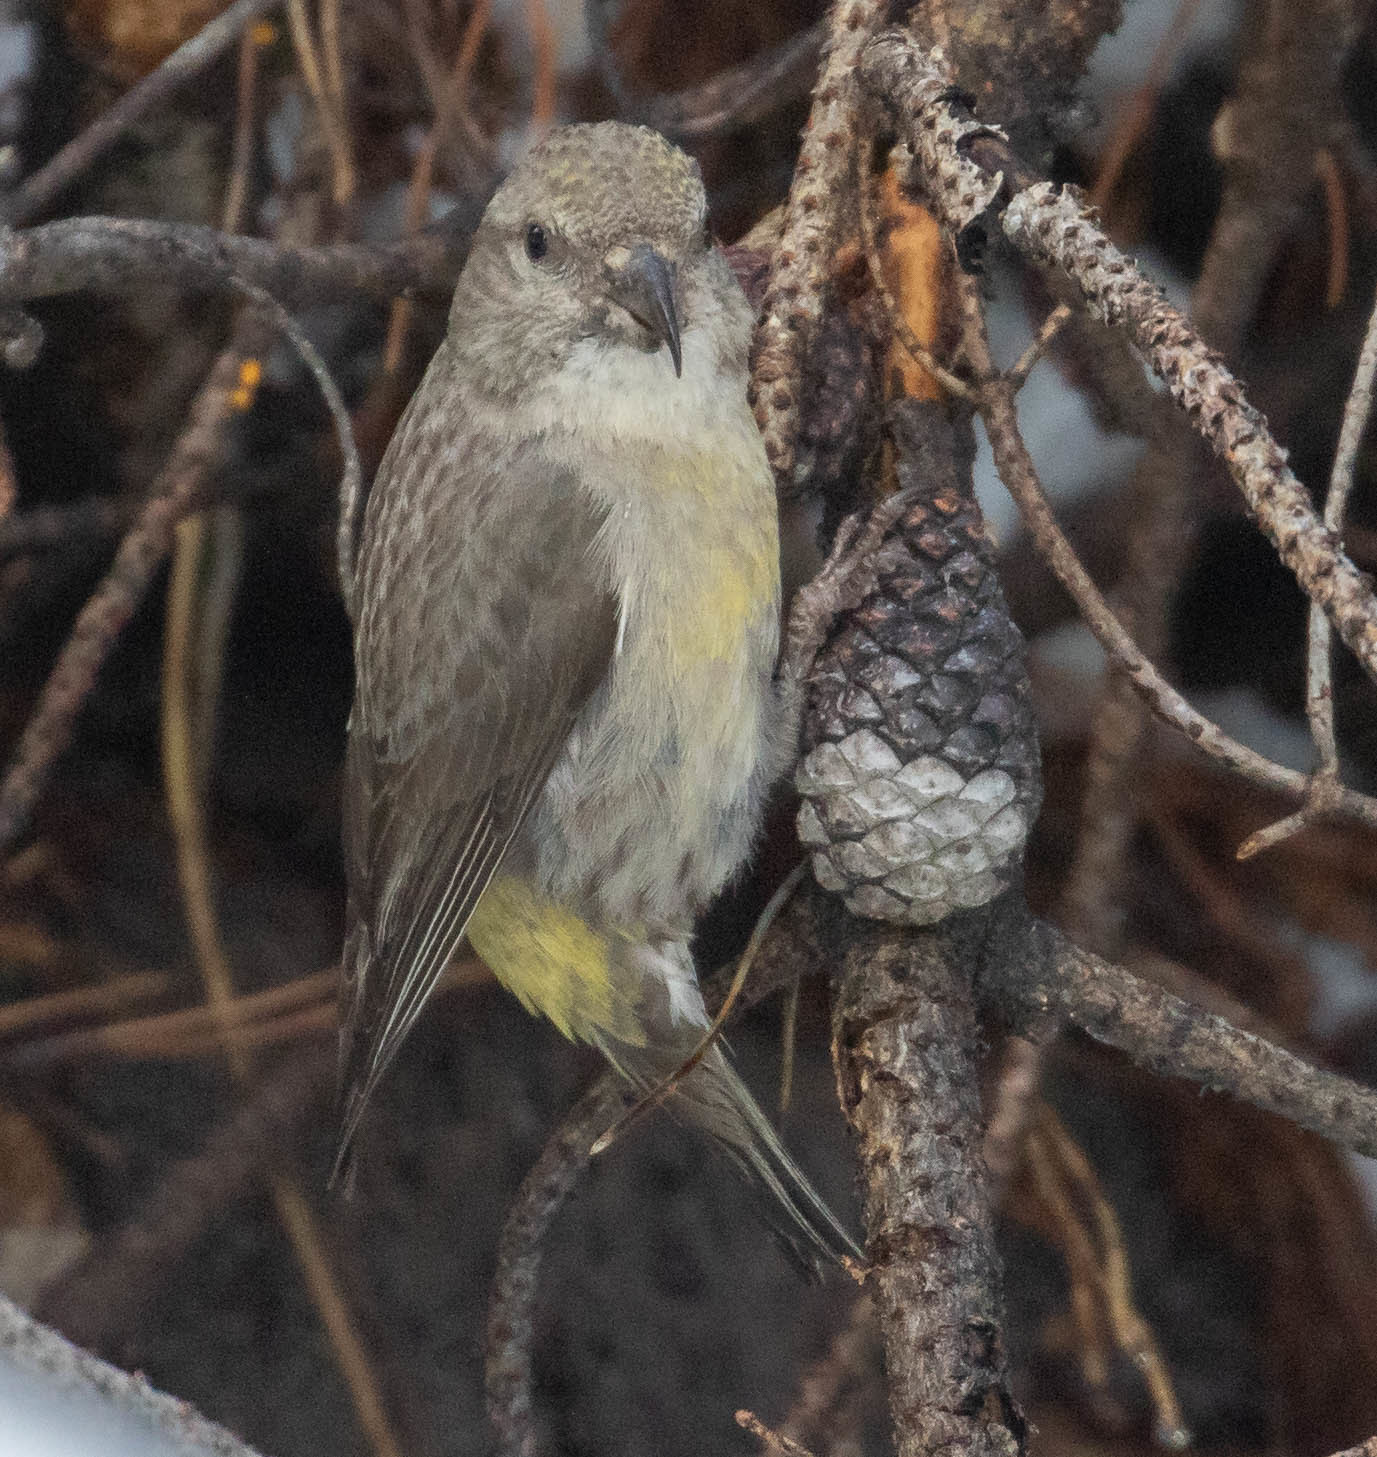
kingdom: Animalia
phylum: Chordata
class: Aves
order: Passeriformes
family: Fringillidae
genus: Loxia
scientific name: Loxia sinesciuris
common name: Cassia crossbill
